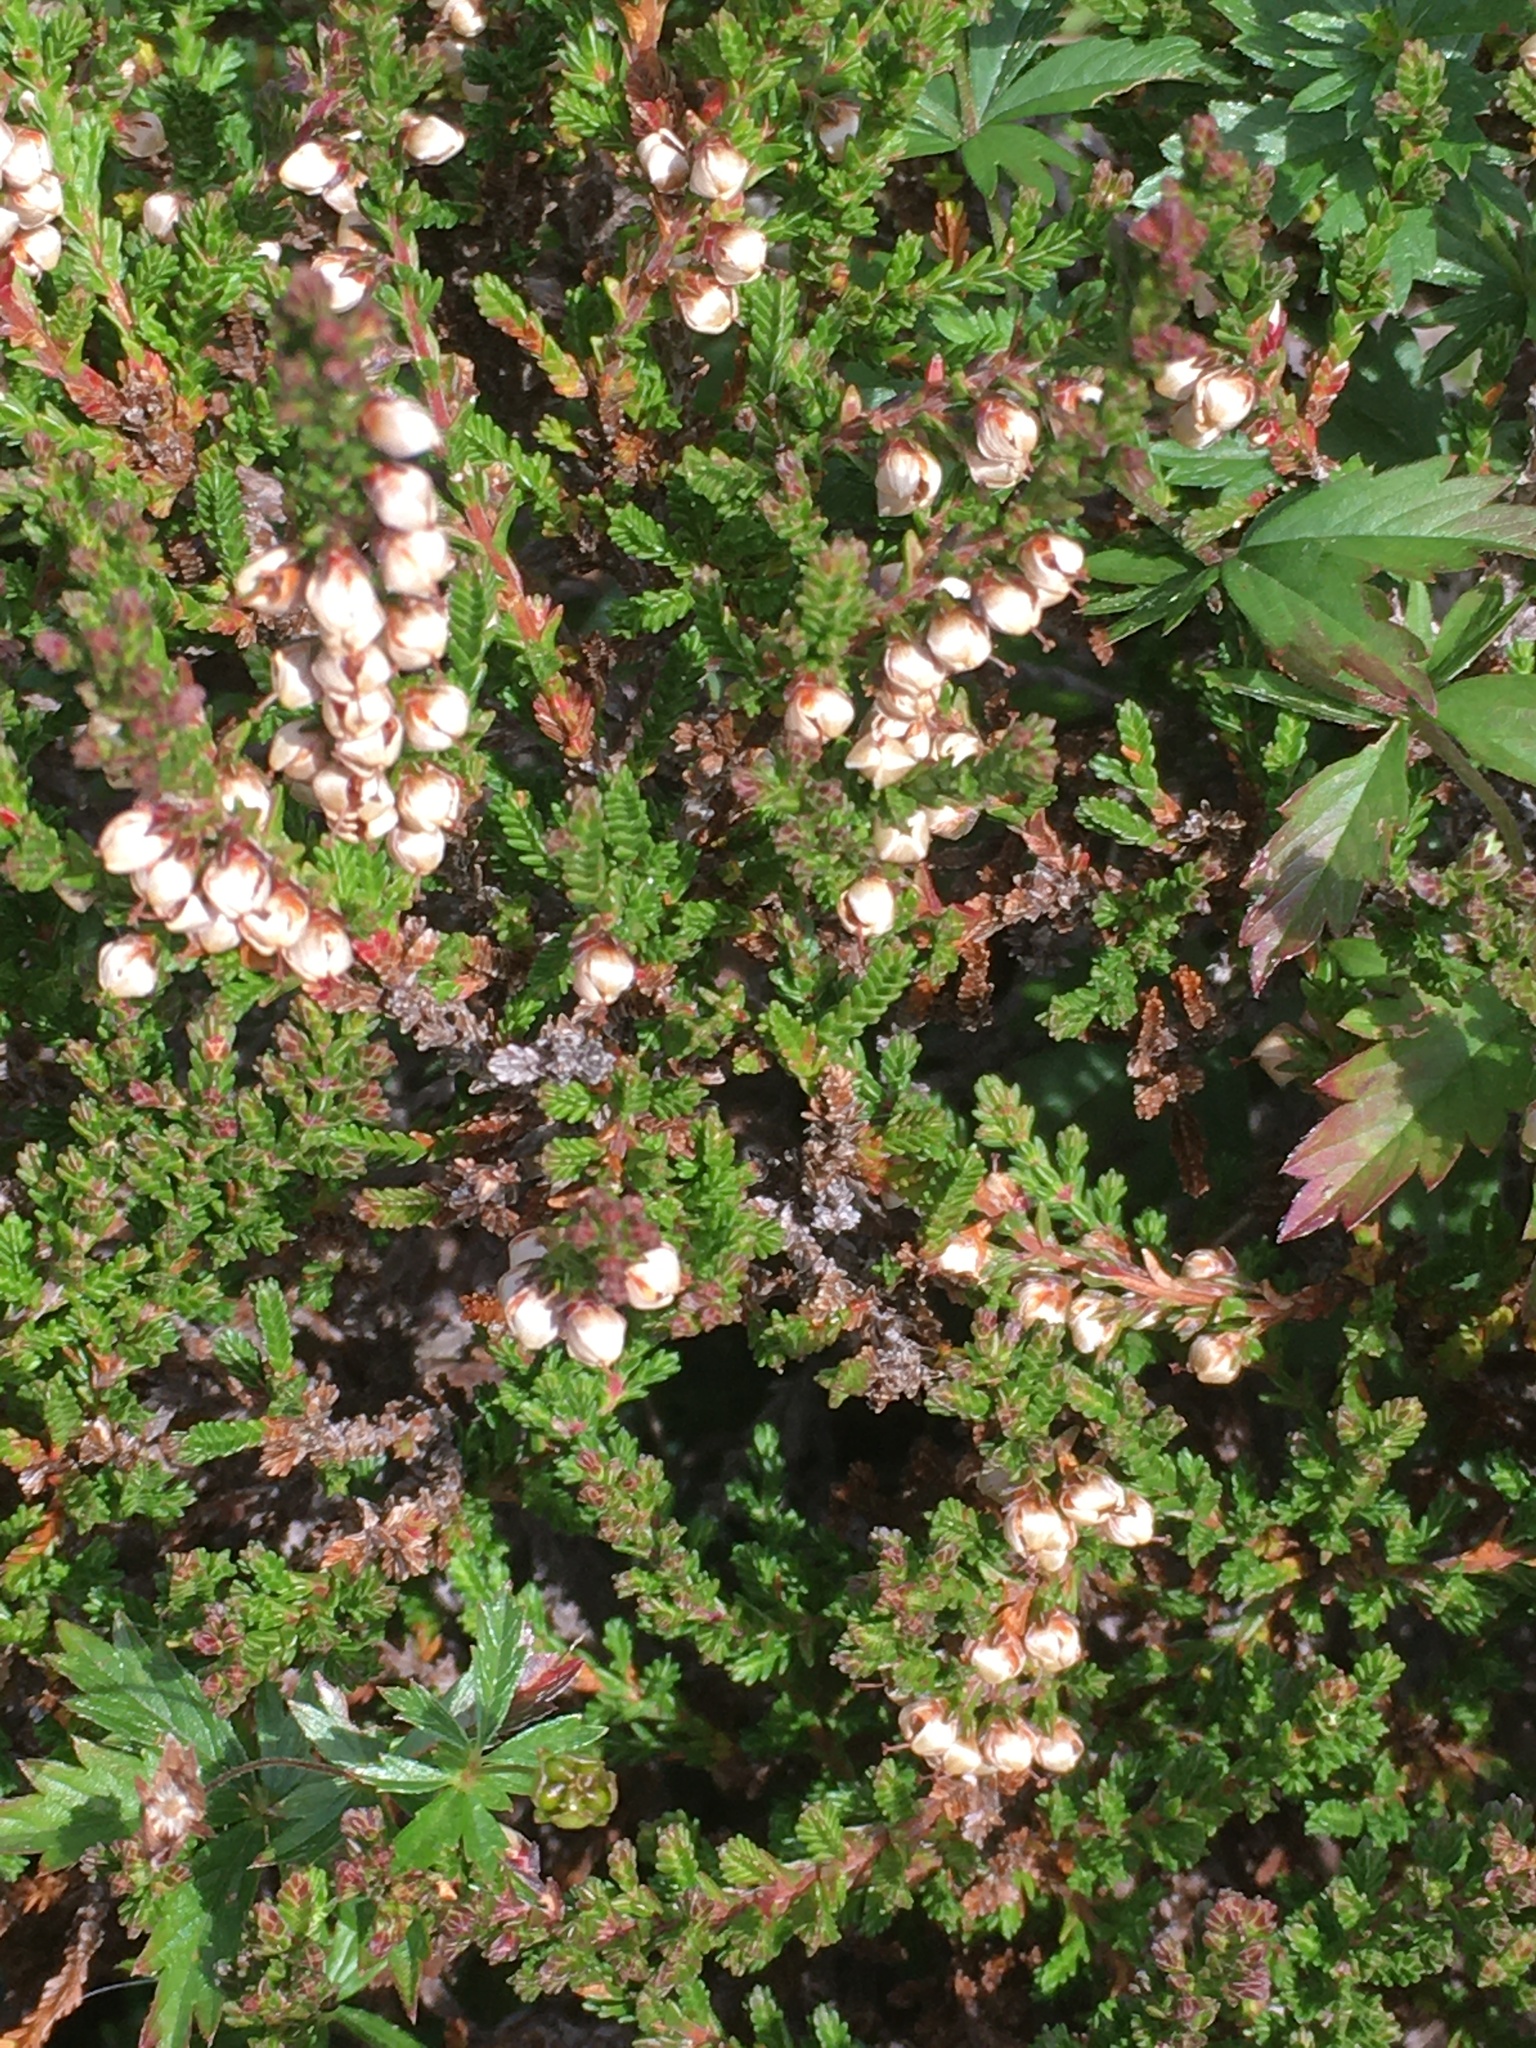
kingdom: Plantae
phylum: Tracheophyta
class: Magnoliopsida
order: Ericales
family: Ericaceae
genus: Calluna
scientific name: Calluna vulgaris
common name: Heather
